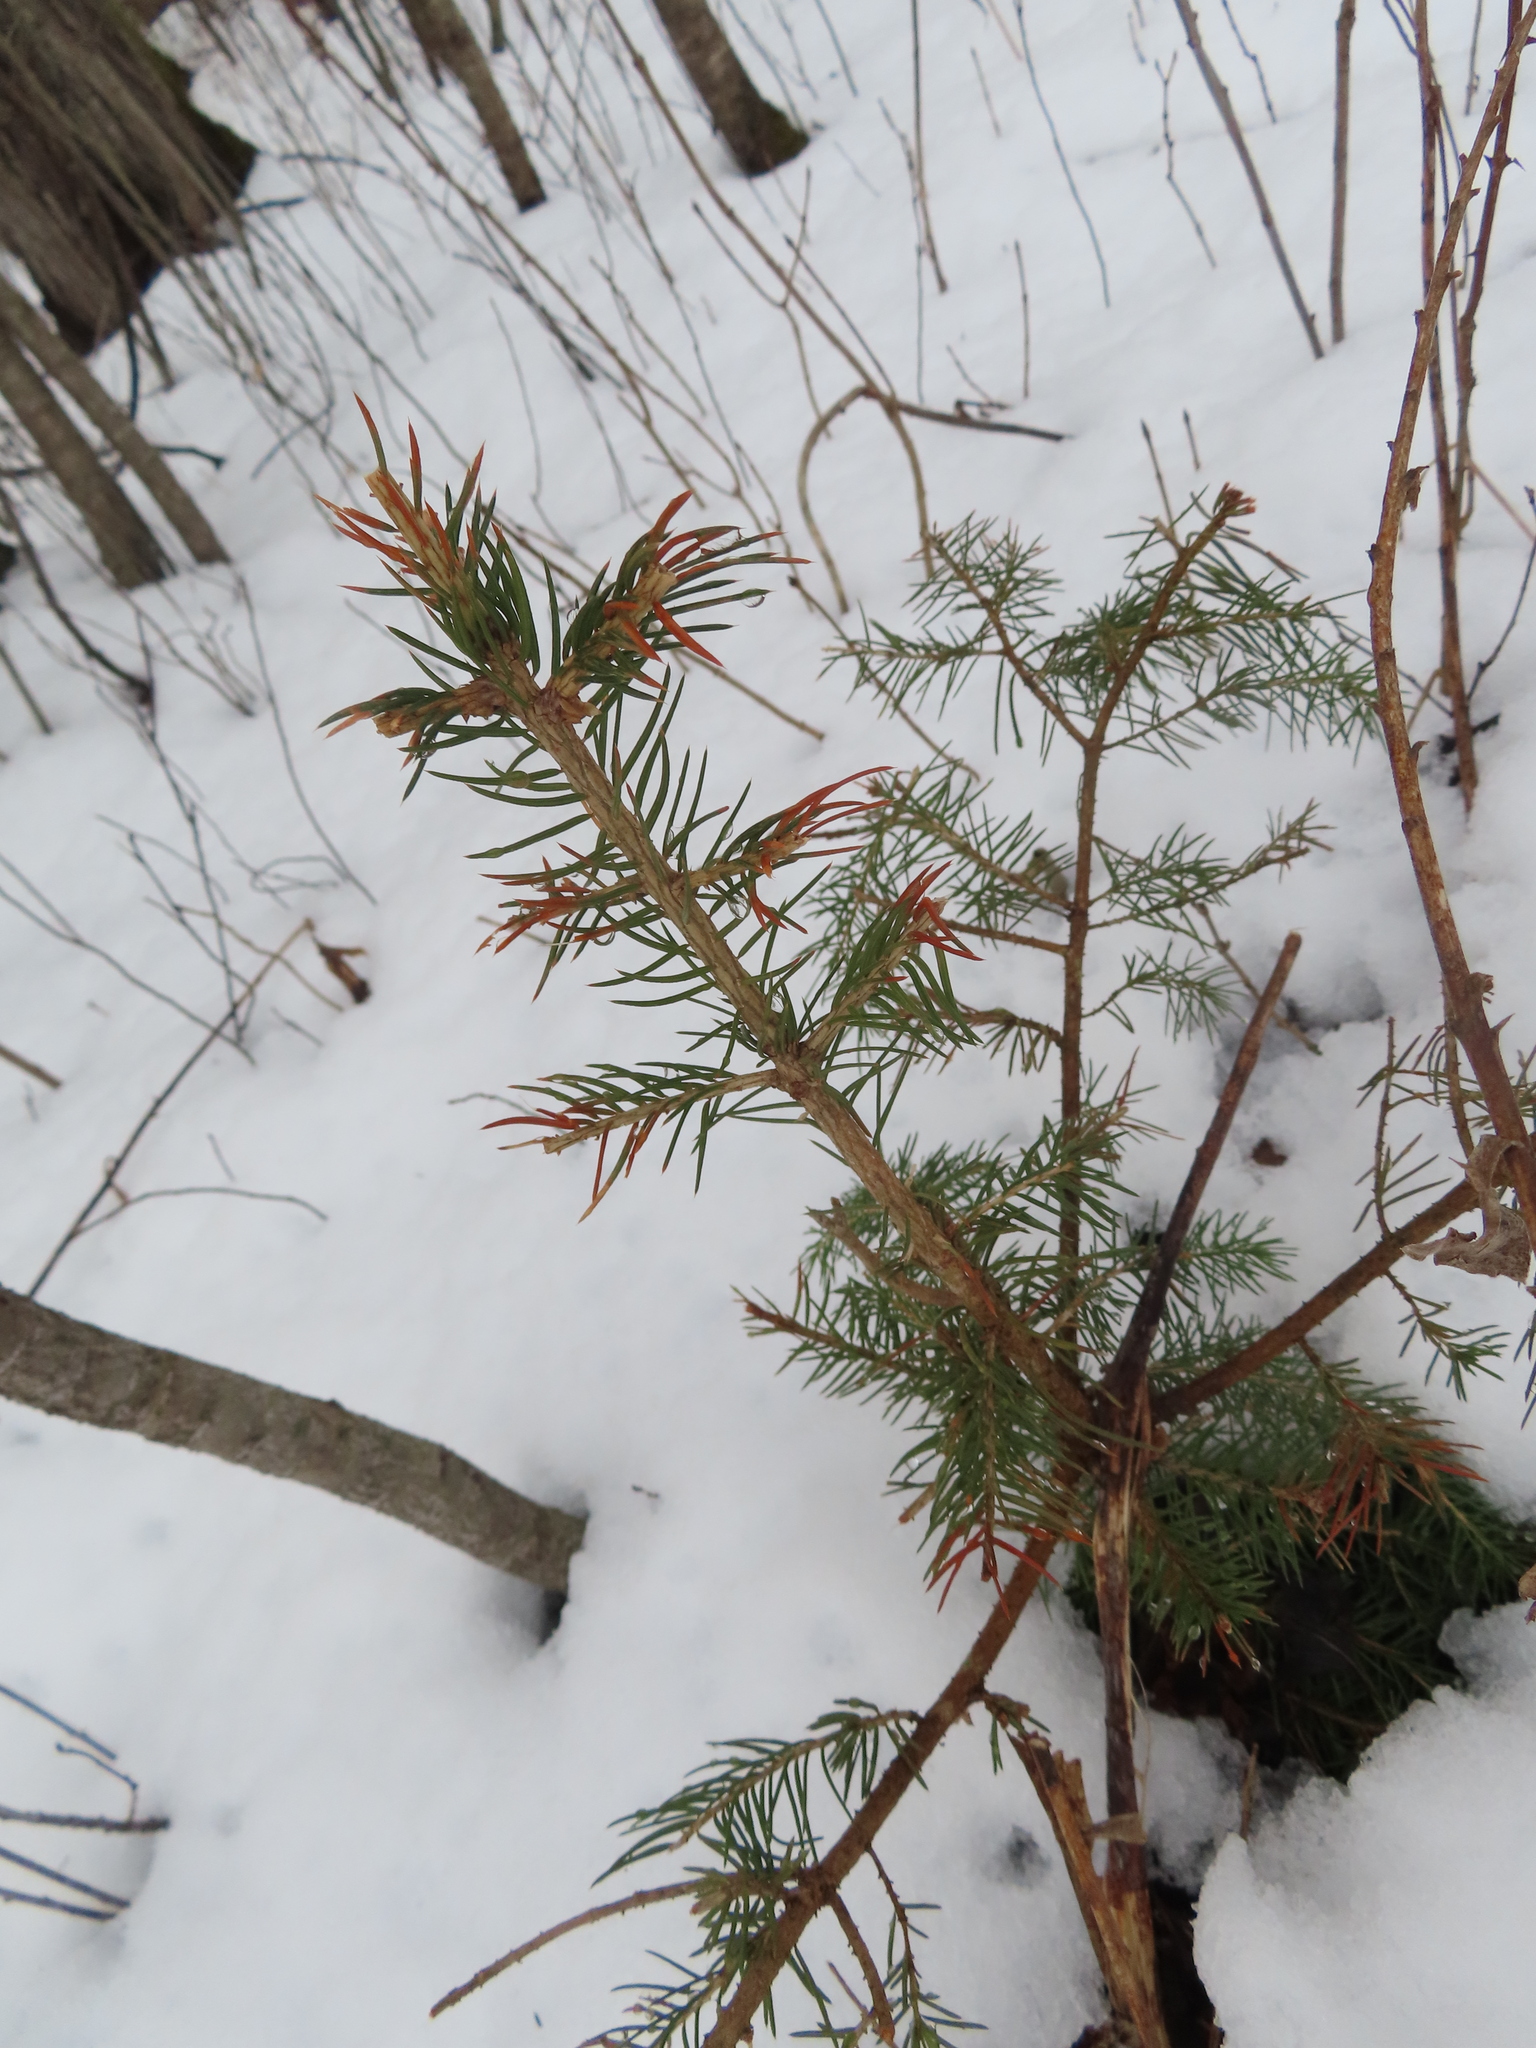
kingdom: Plantae
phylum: Tracheophyta
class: Pinopsida
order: Pinales
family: Cupressaceae
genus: Juniperus
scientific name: Juniperus communis
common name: Common juniper
